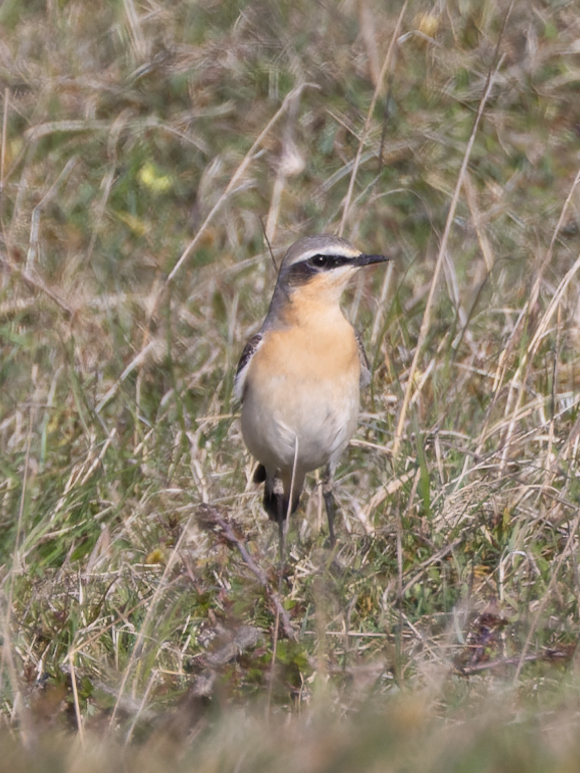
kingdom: Animalia
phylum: Chordata
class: Aves
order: Passeriformes
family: Muscicapidae
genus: Oenanthe
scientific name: Oenanthe oenanthe
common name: Northern wheatear
